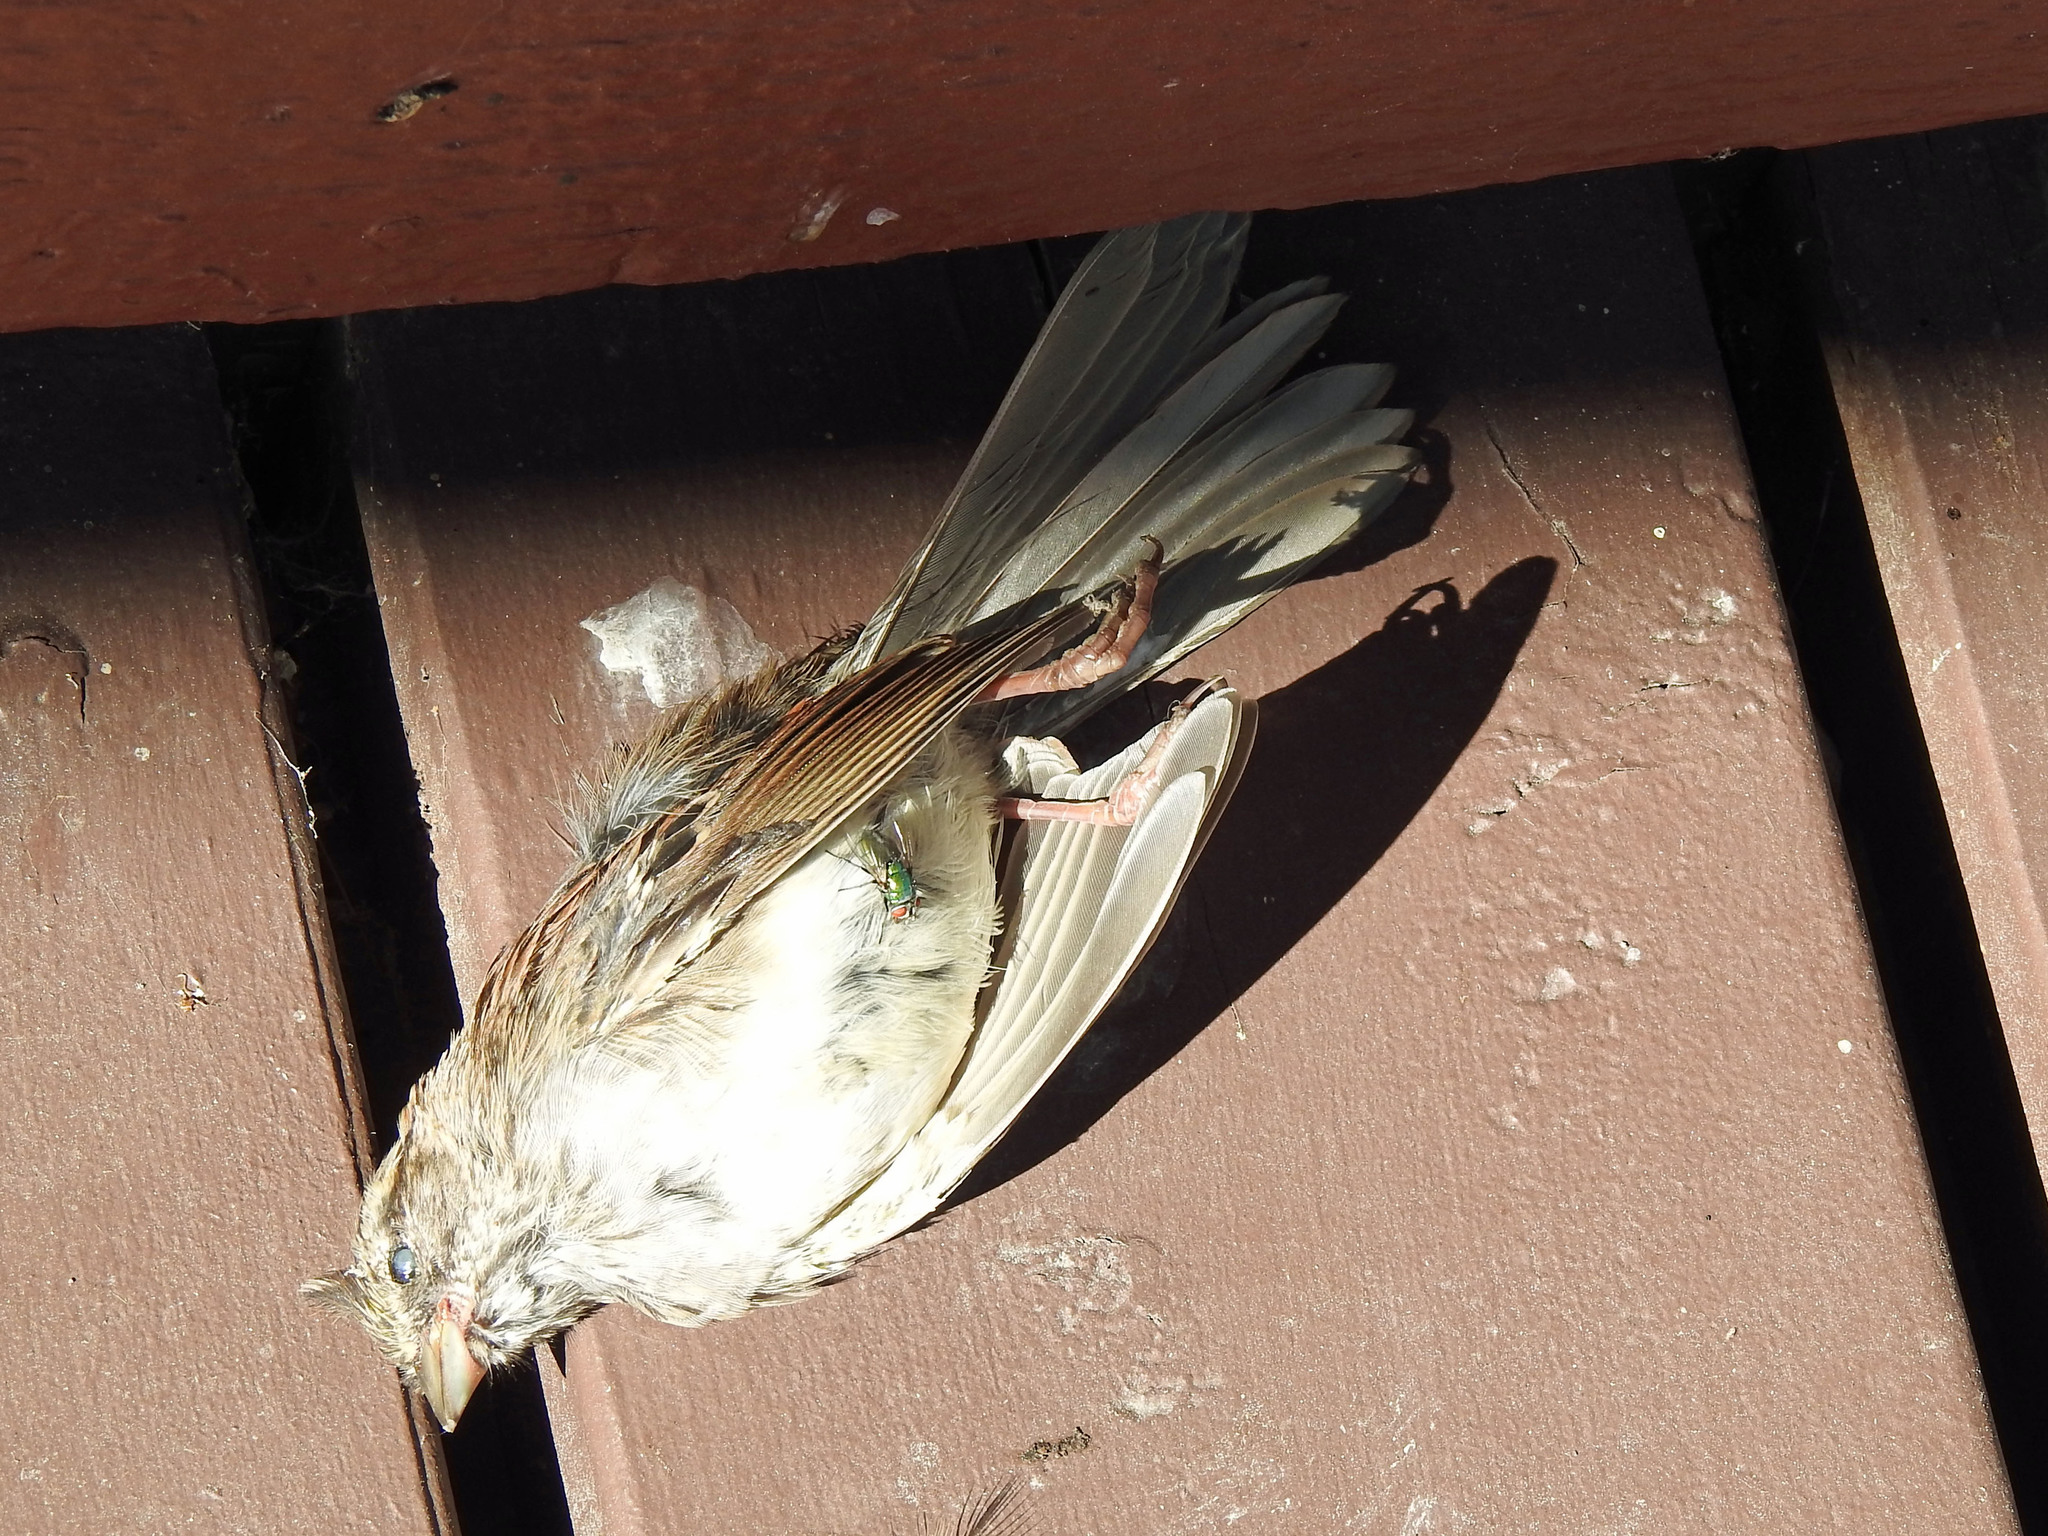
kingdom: Animalia
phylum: Chordata
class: Aves
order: Passeriformes
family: Passerellidae
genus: Zonotrichia
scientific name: Zonotrichia albicollis
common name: White-throated sparrow
